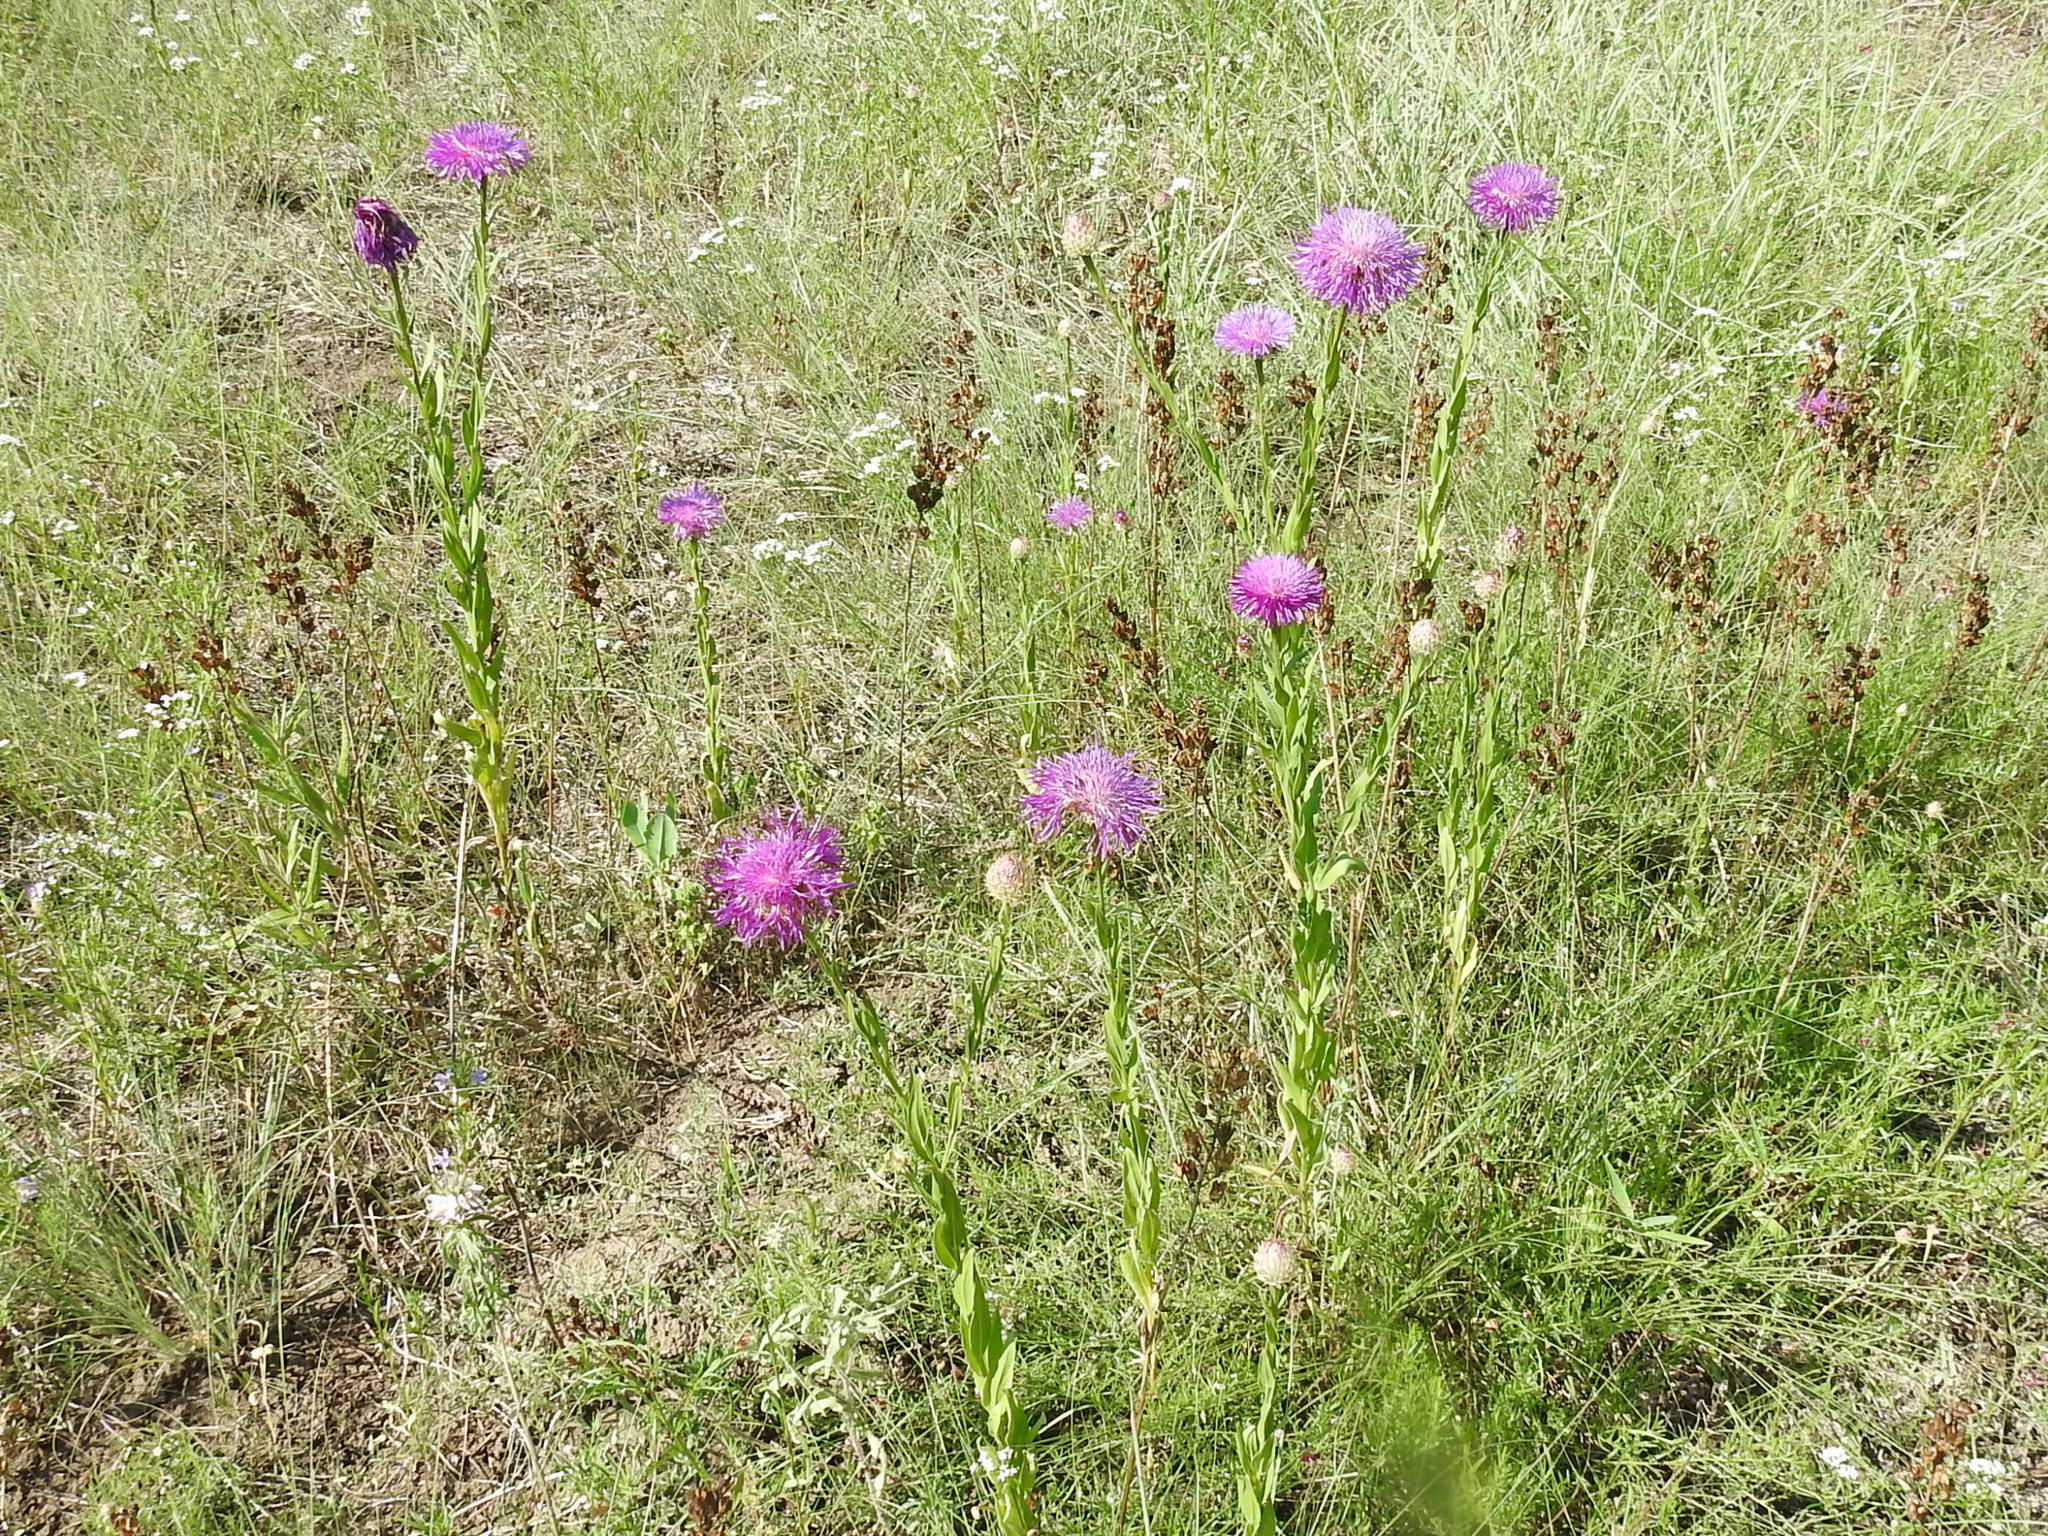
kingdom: Plantae
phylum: Tracheophyta
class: Magnoliopsida
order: Asterales
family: Asteraceae
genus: Plectocephalus
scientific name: Plectocephalus americanus
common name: American basket-flower
